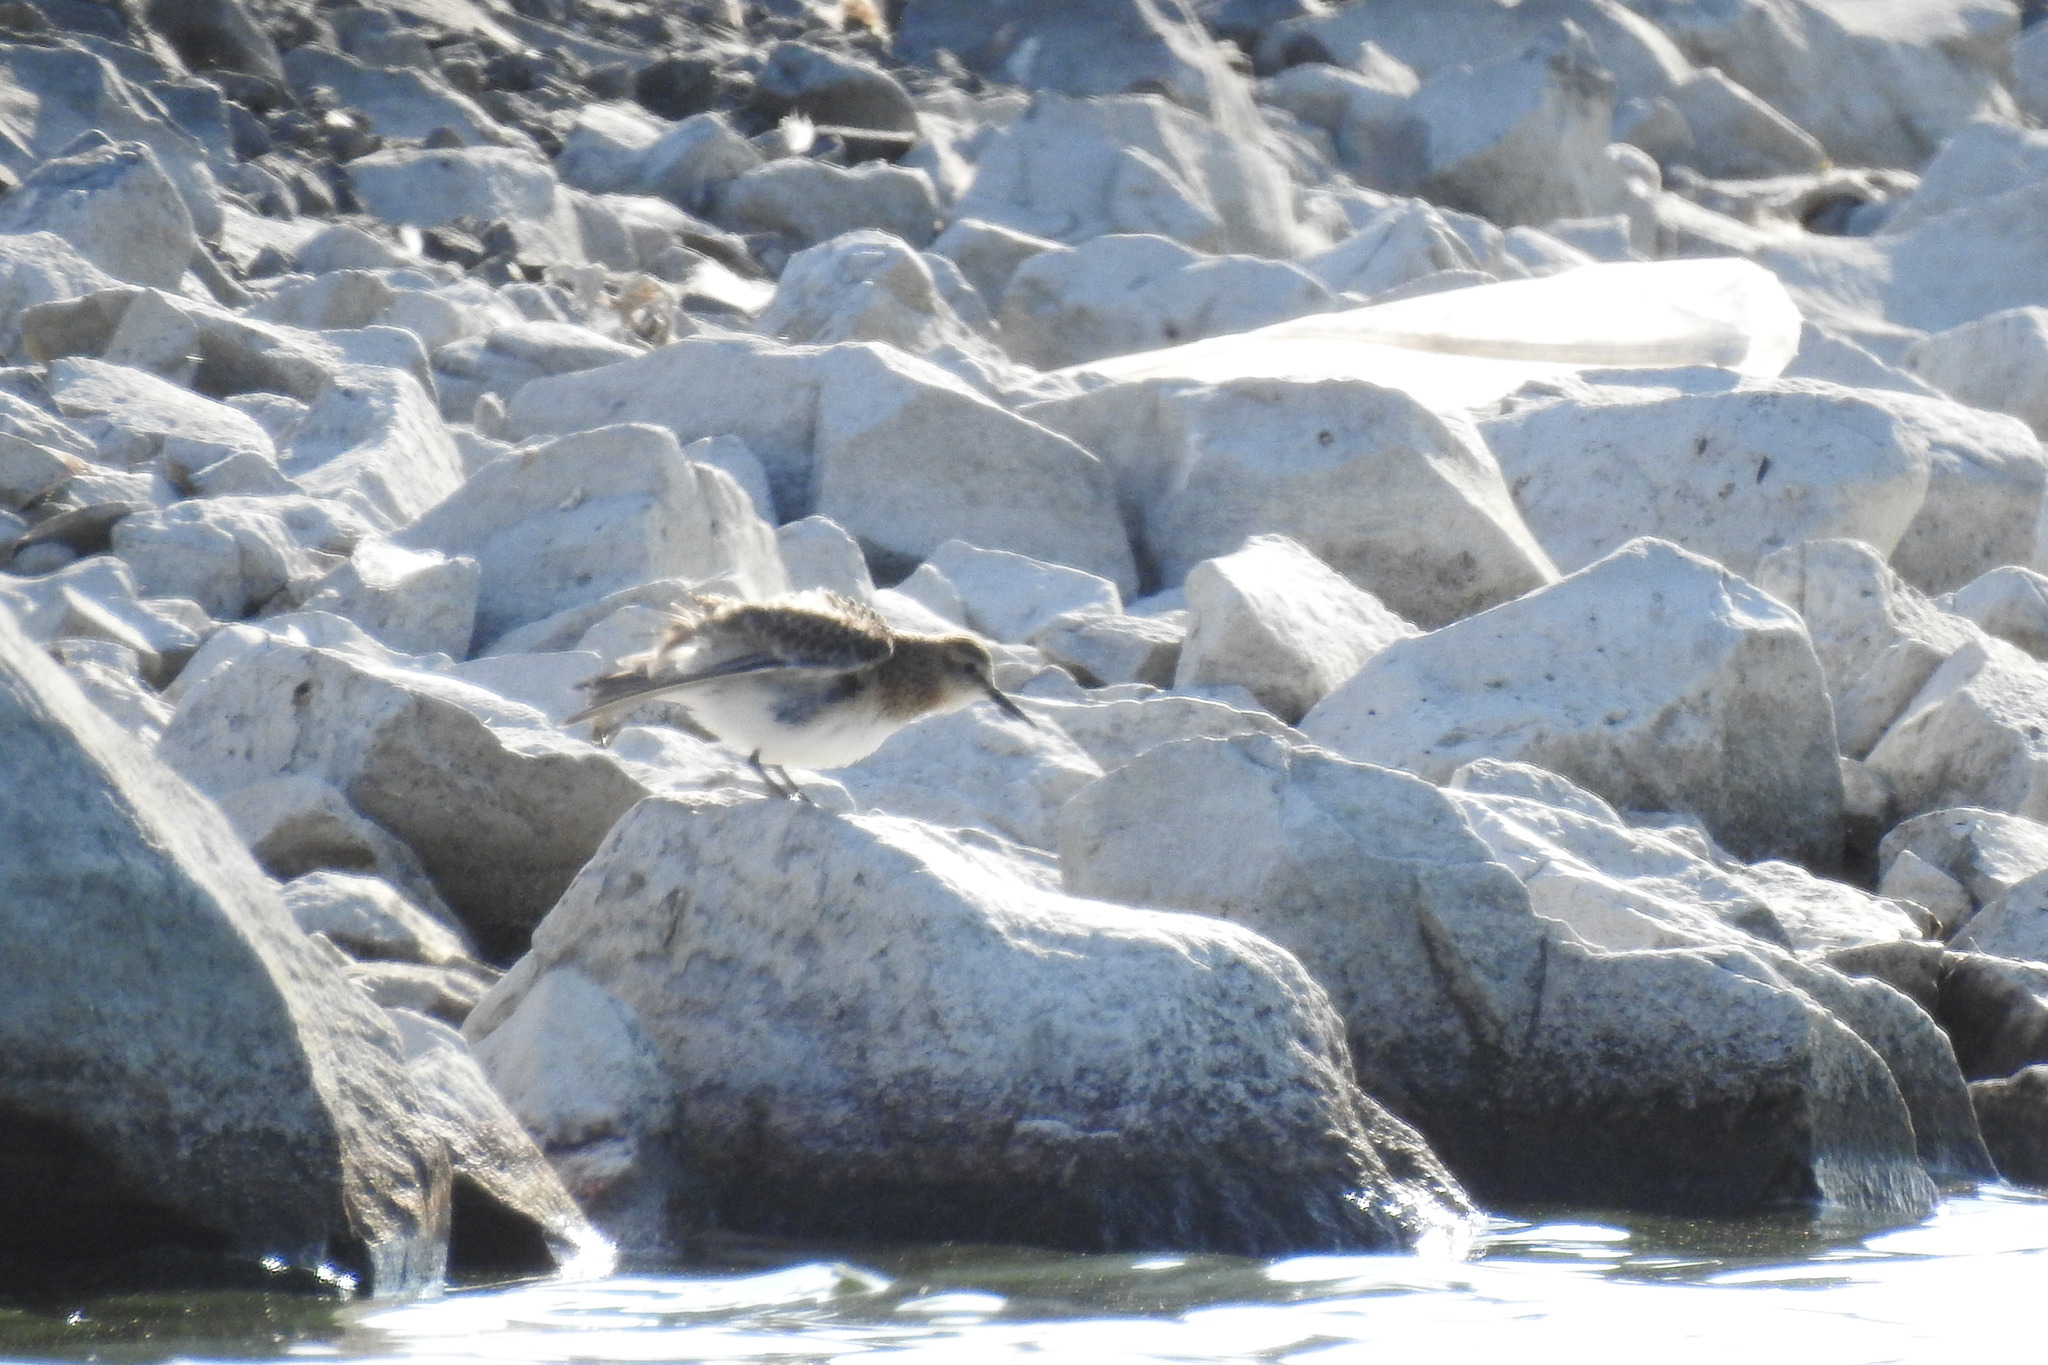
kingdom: Animalia
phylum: Chordata
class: Aves
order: Charadriiformes
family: Scolopacidae
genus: Calidris
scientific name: Calidris bairdii
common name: Baird's sandpiper
